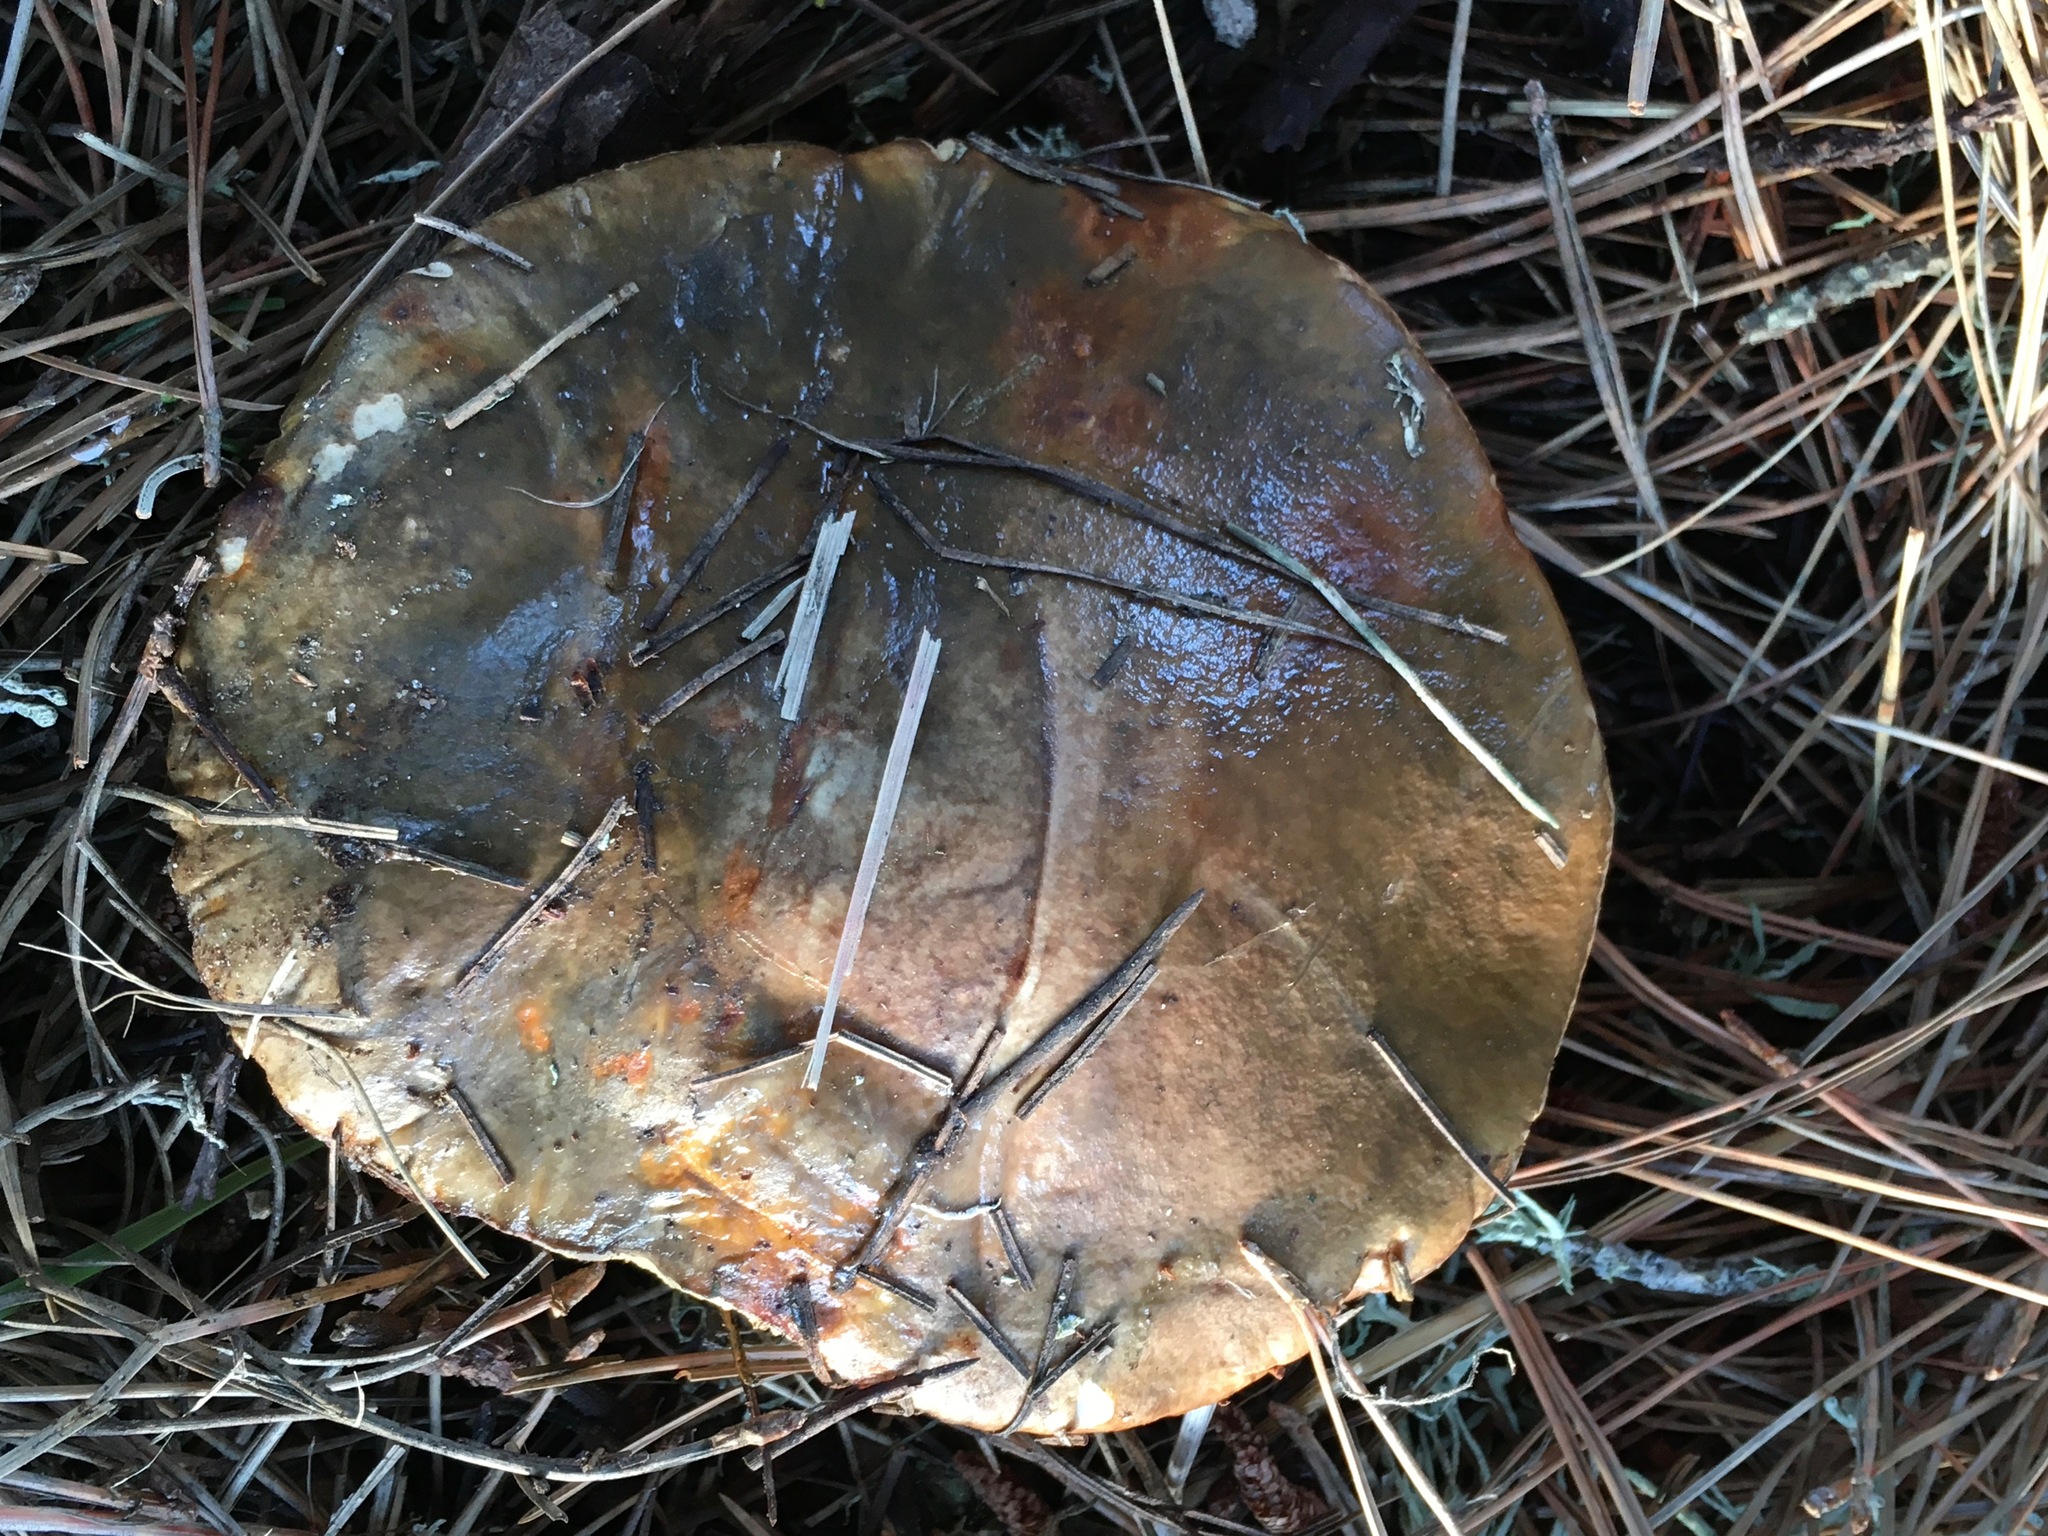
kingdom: Fungi
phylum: Basidiomycota
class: Agaricomycetes
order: Boletales
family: Suillaceae
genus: Suillus
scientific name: Suillus pungens
